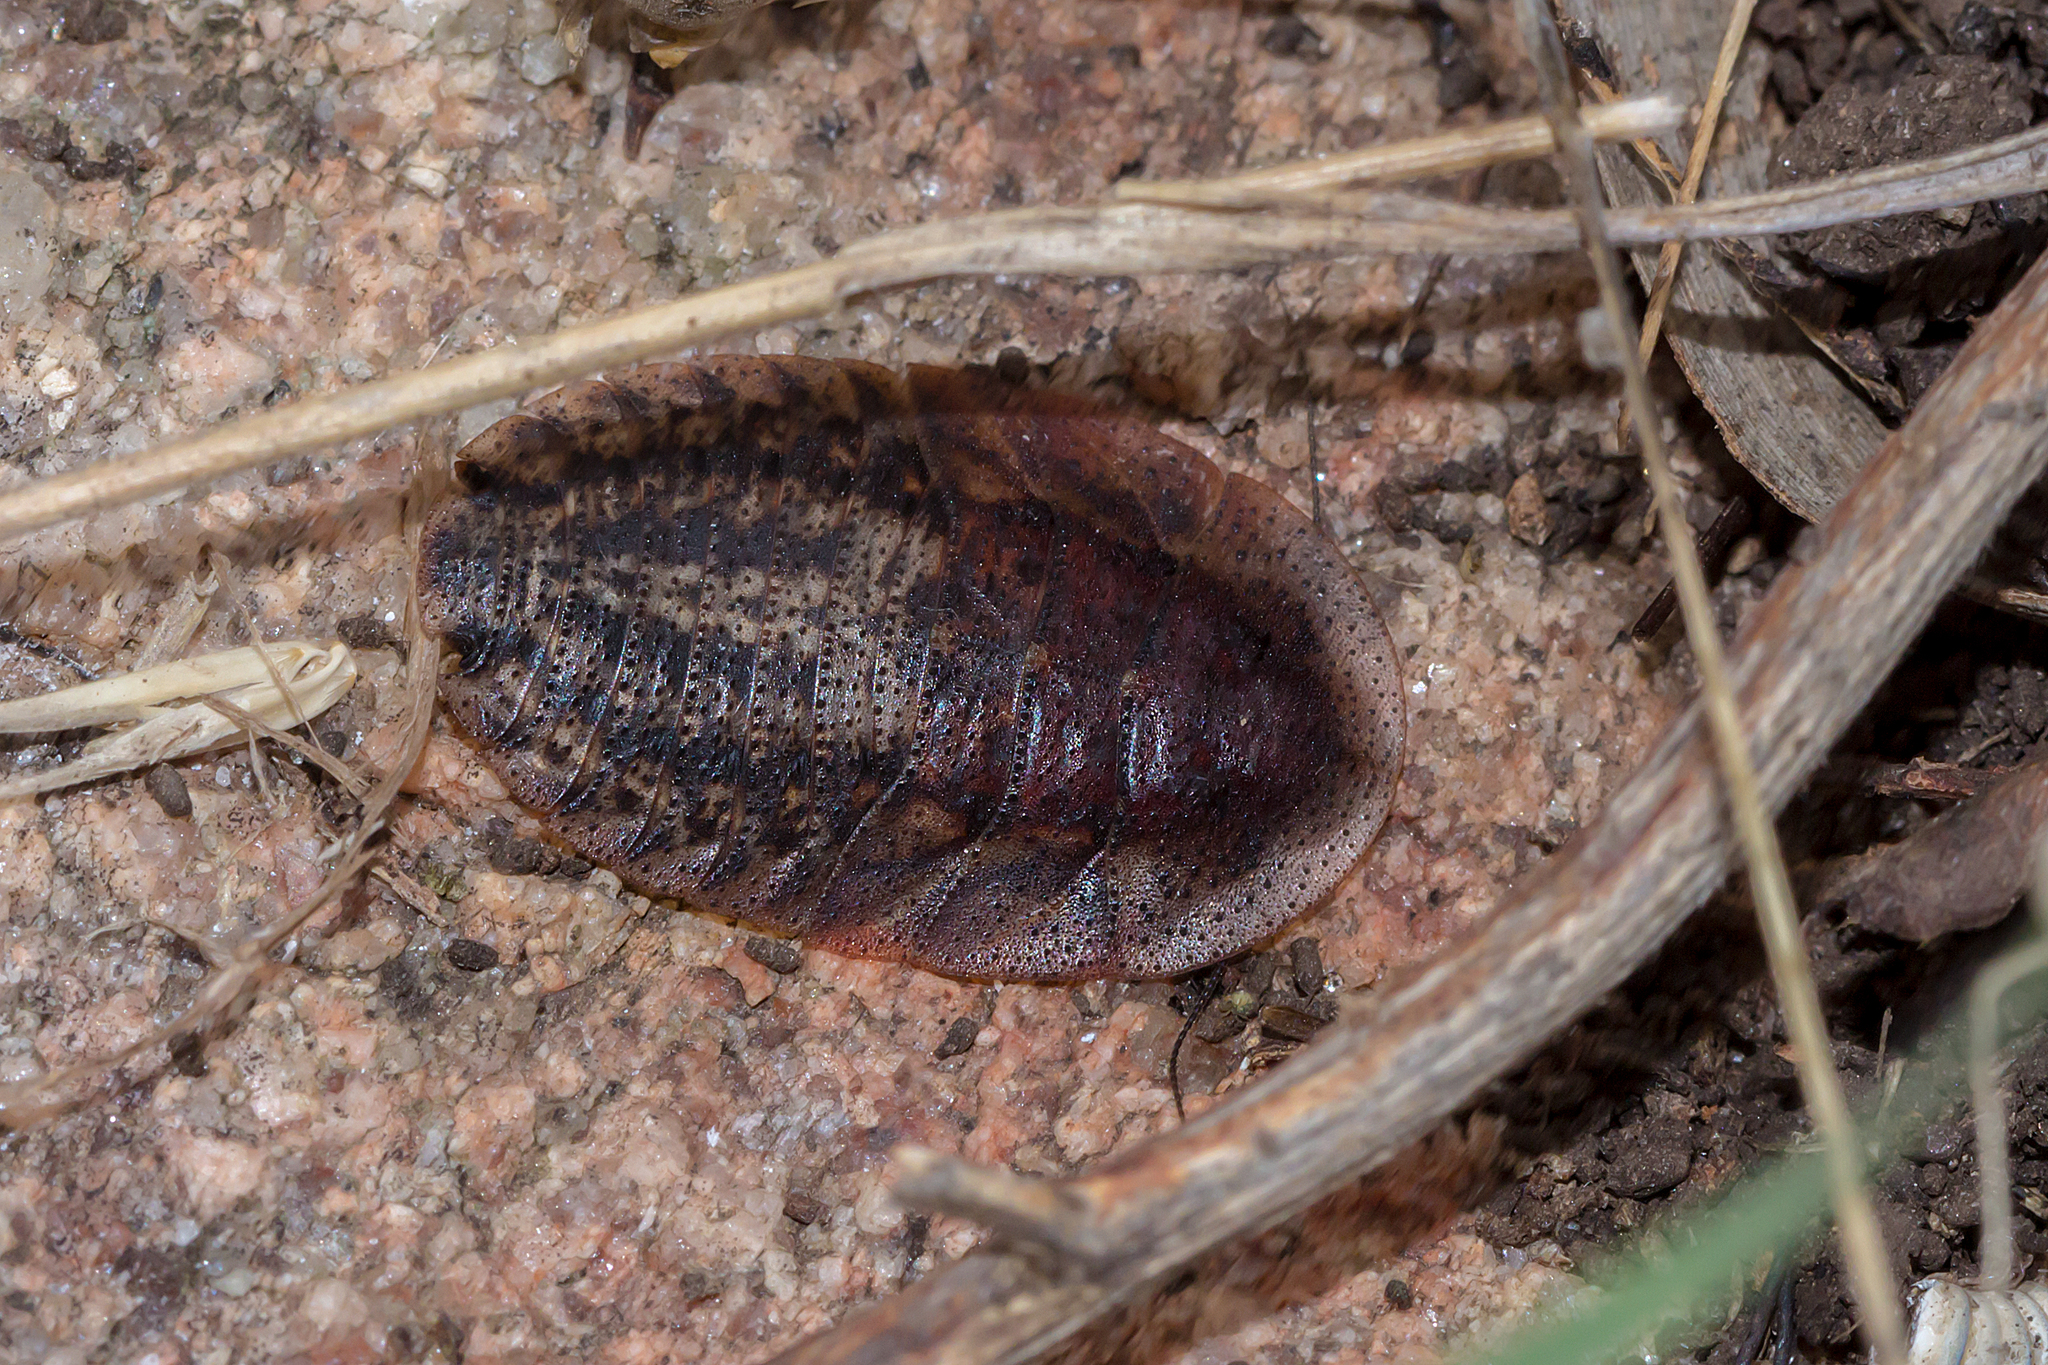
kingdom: Animalia
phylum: Arthropoda
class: Insecta
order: Blattodea
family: Blaberidae
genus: Laxta
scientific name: Laxta granicollis
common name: Bark cockroach
